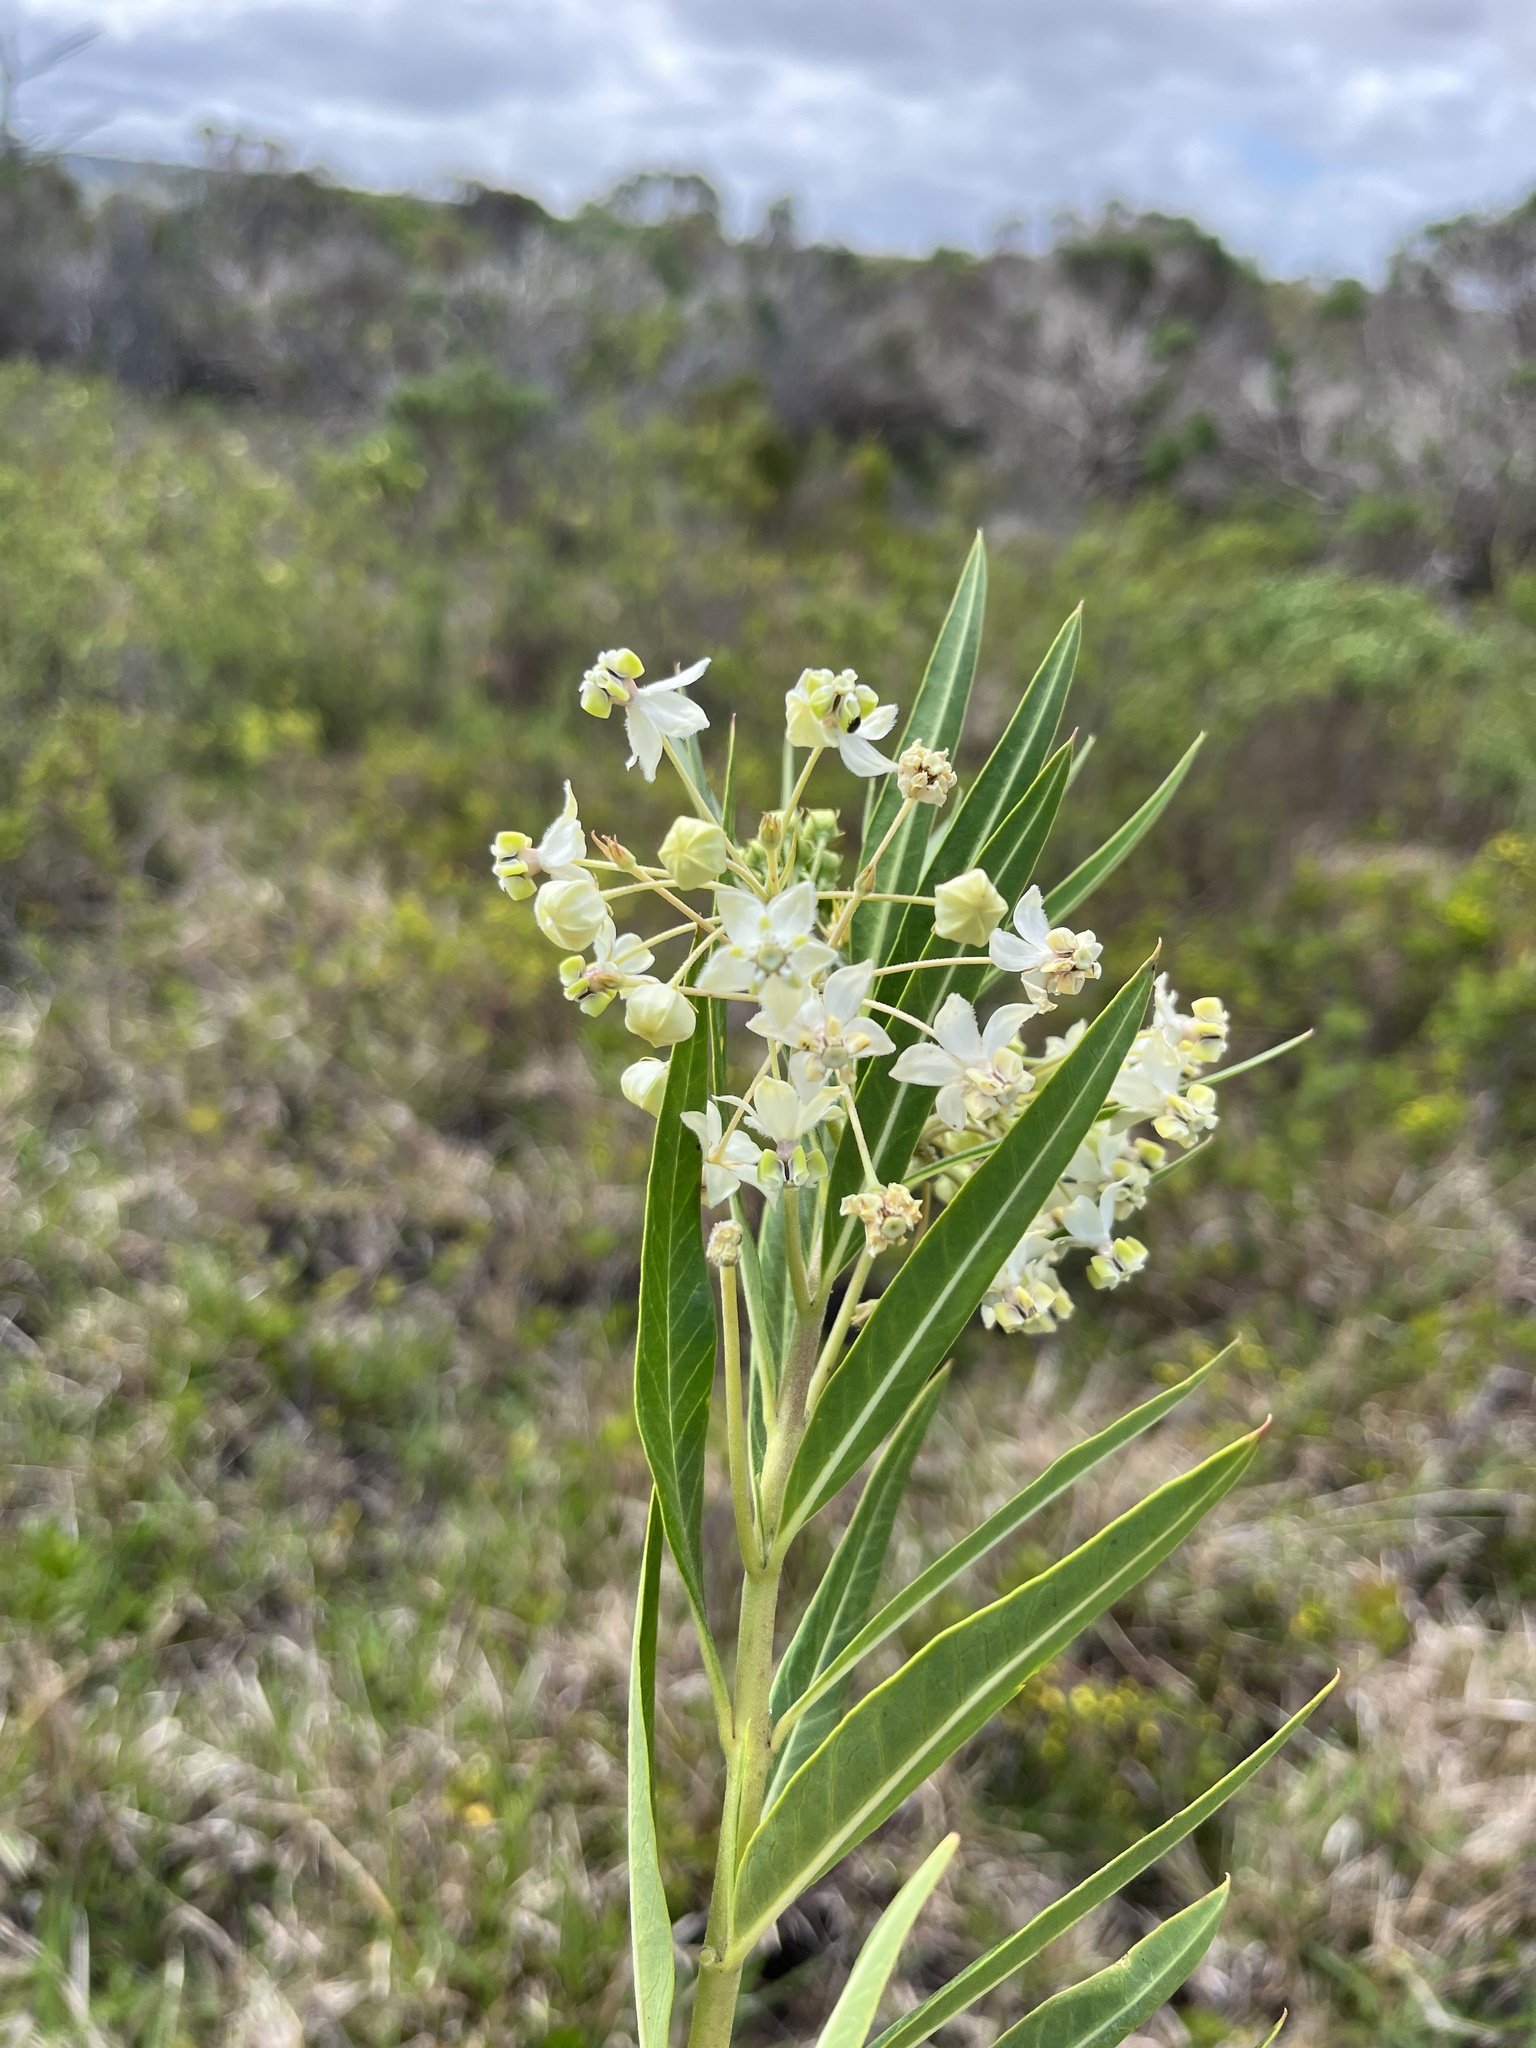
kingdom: Plantae
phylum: Tracheophyta
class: Magnoliopsida
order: Gentianales
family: Apocynaceae
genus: Gomphocarpus
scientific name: Gomphocarpus physocarpus
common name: Balloon cotton bush
